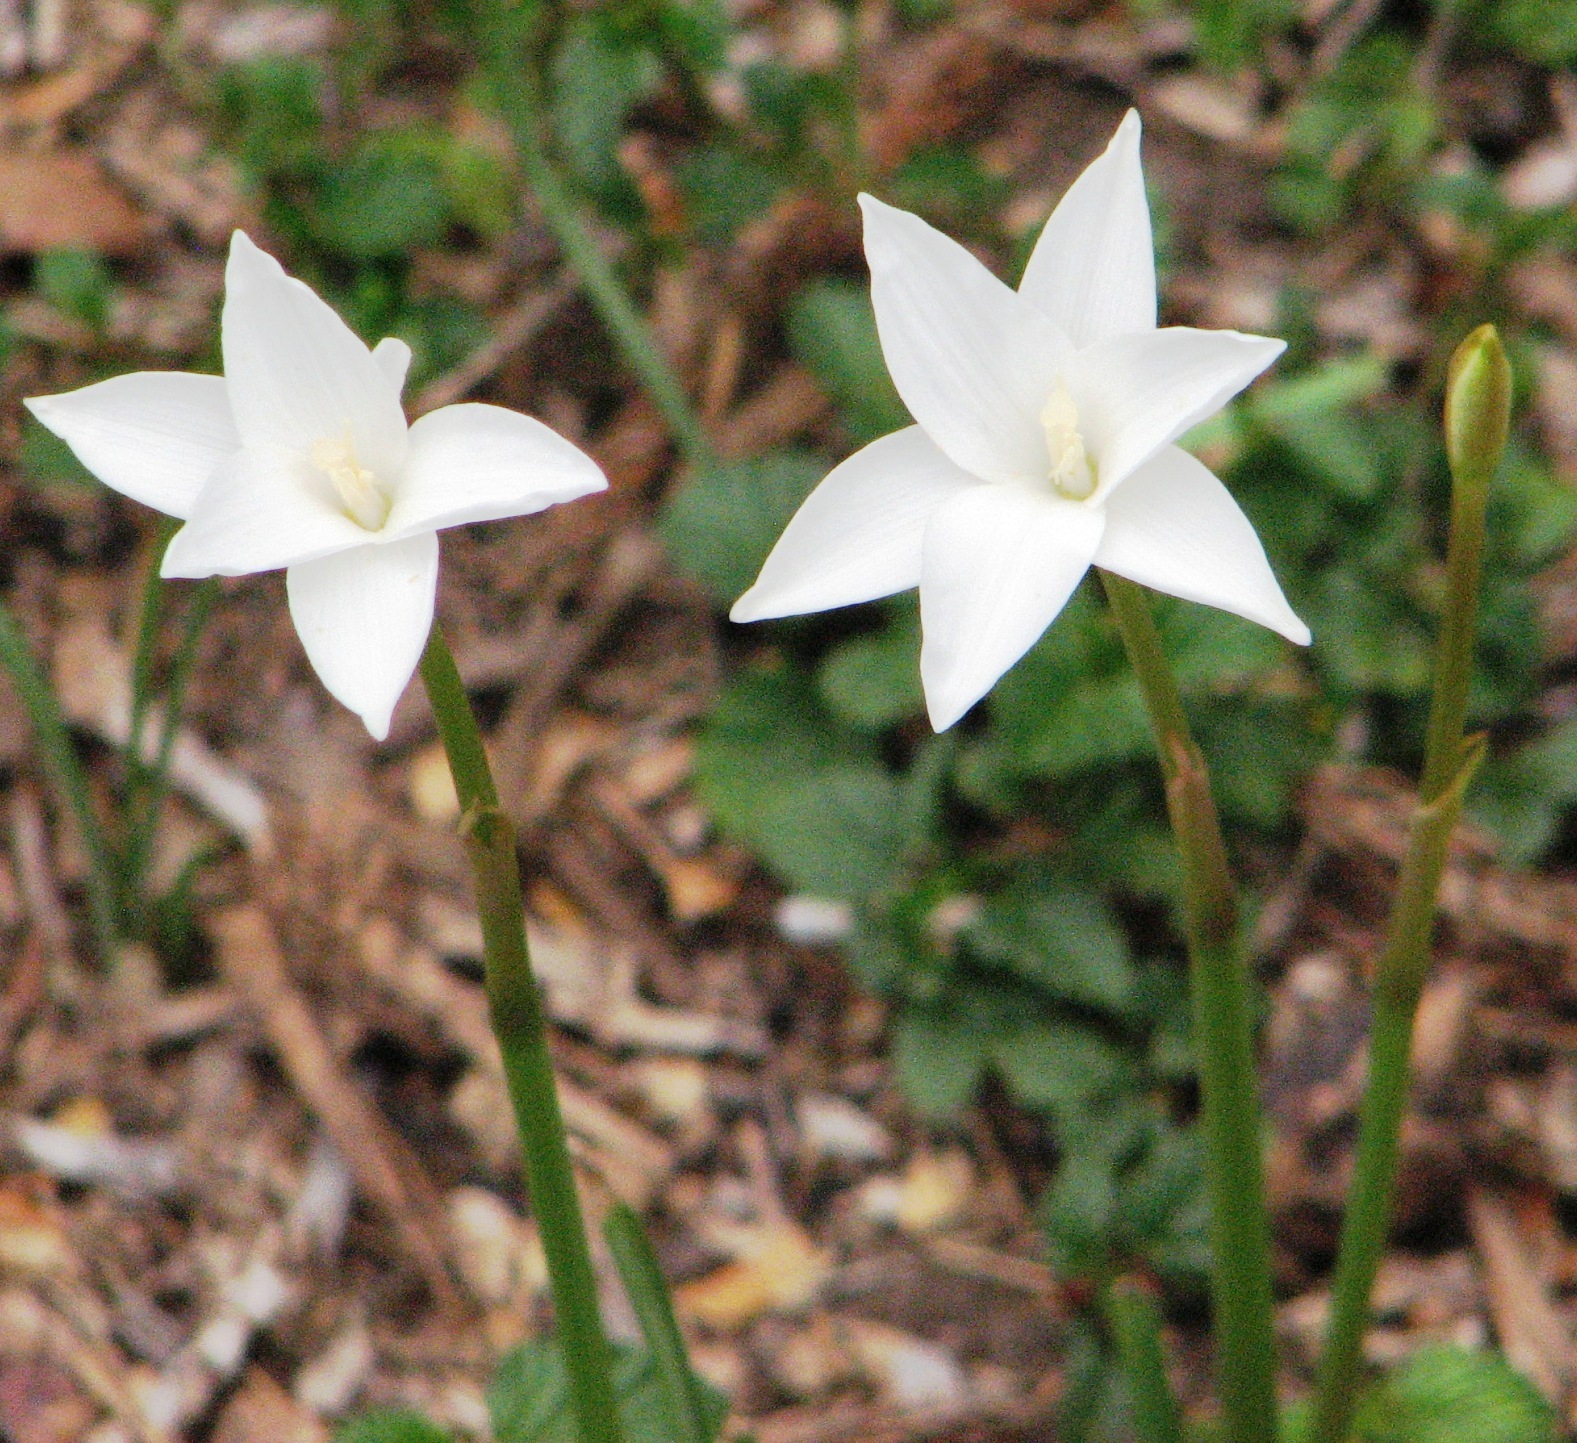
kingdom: Plantae
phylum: Tracheophyta
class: Liliopsida
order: Asparagales
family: Amaryllidaceae
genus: Zephyranthes
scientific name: Zephyranthes chlorosolen
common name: Evening rain-lily
